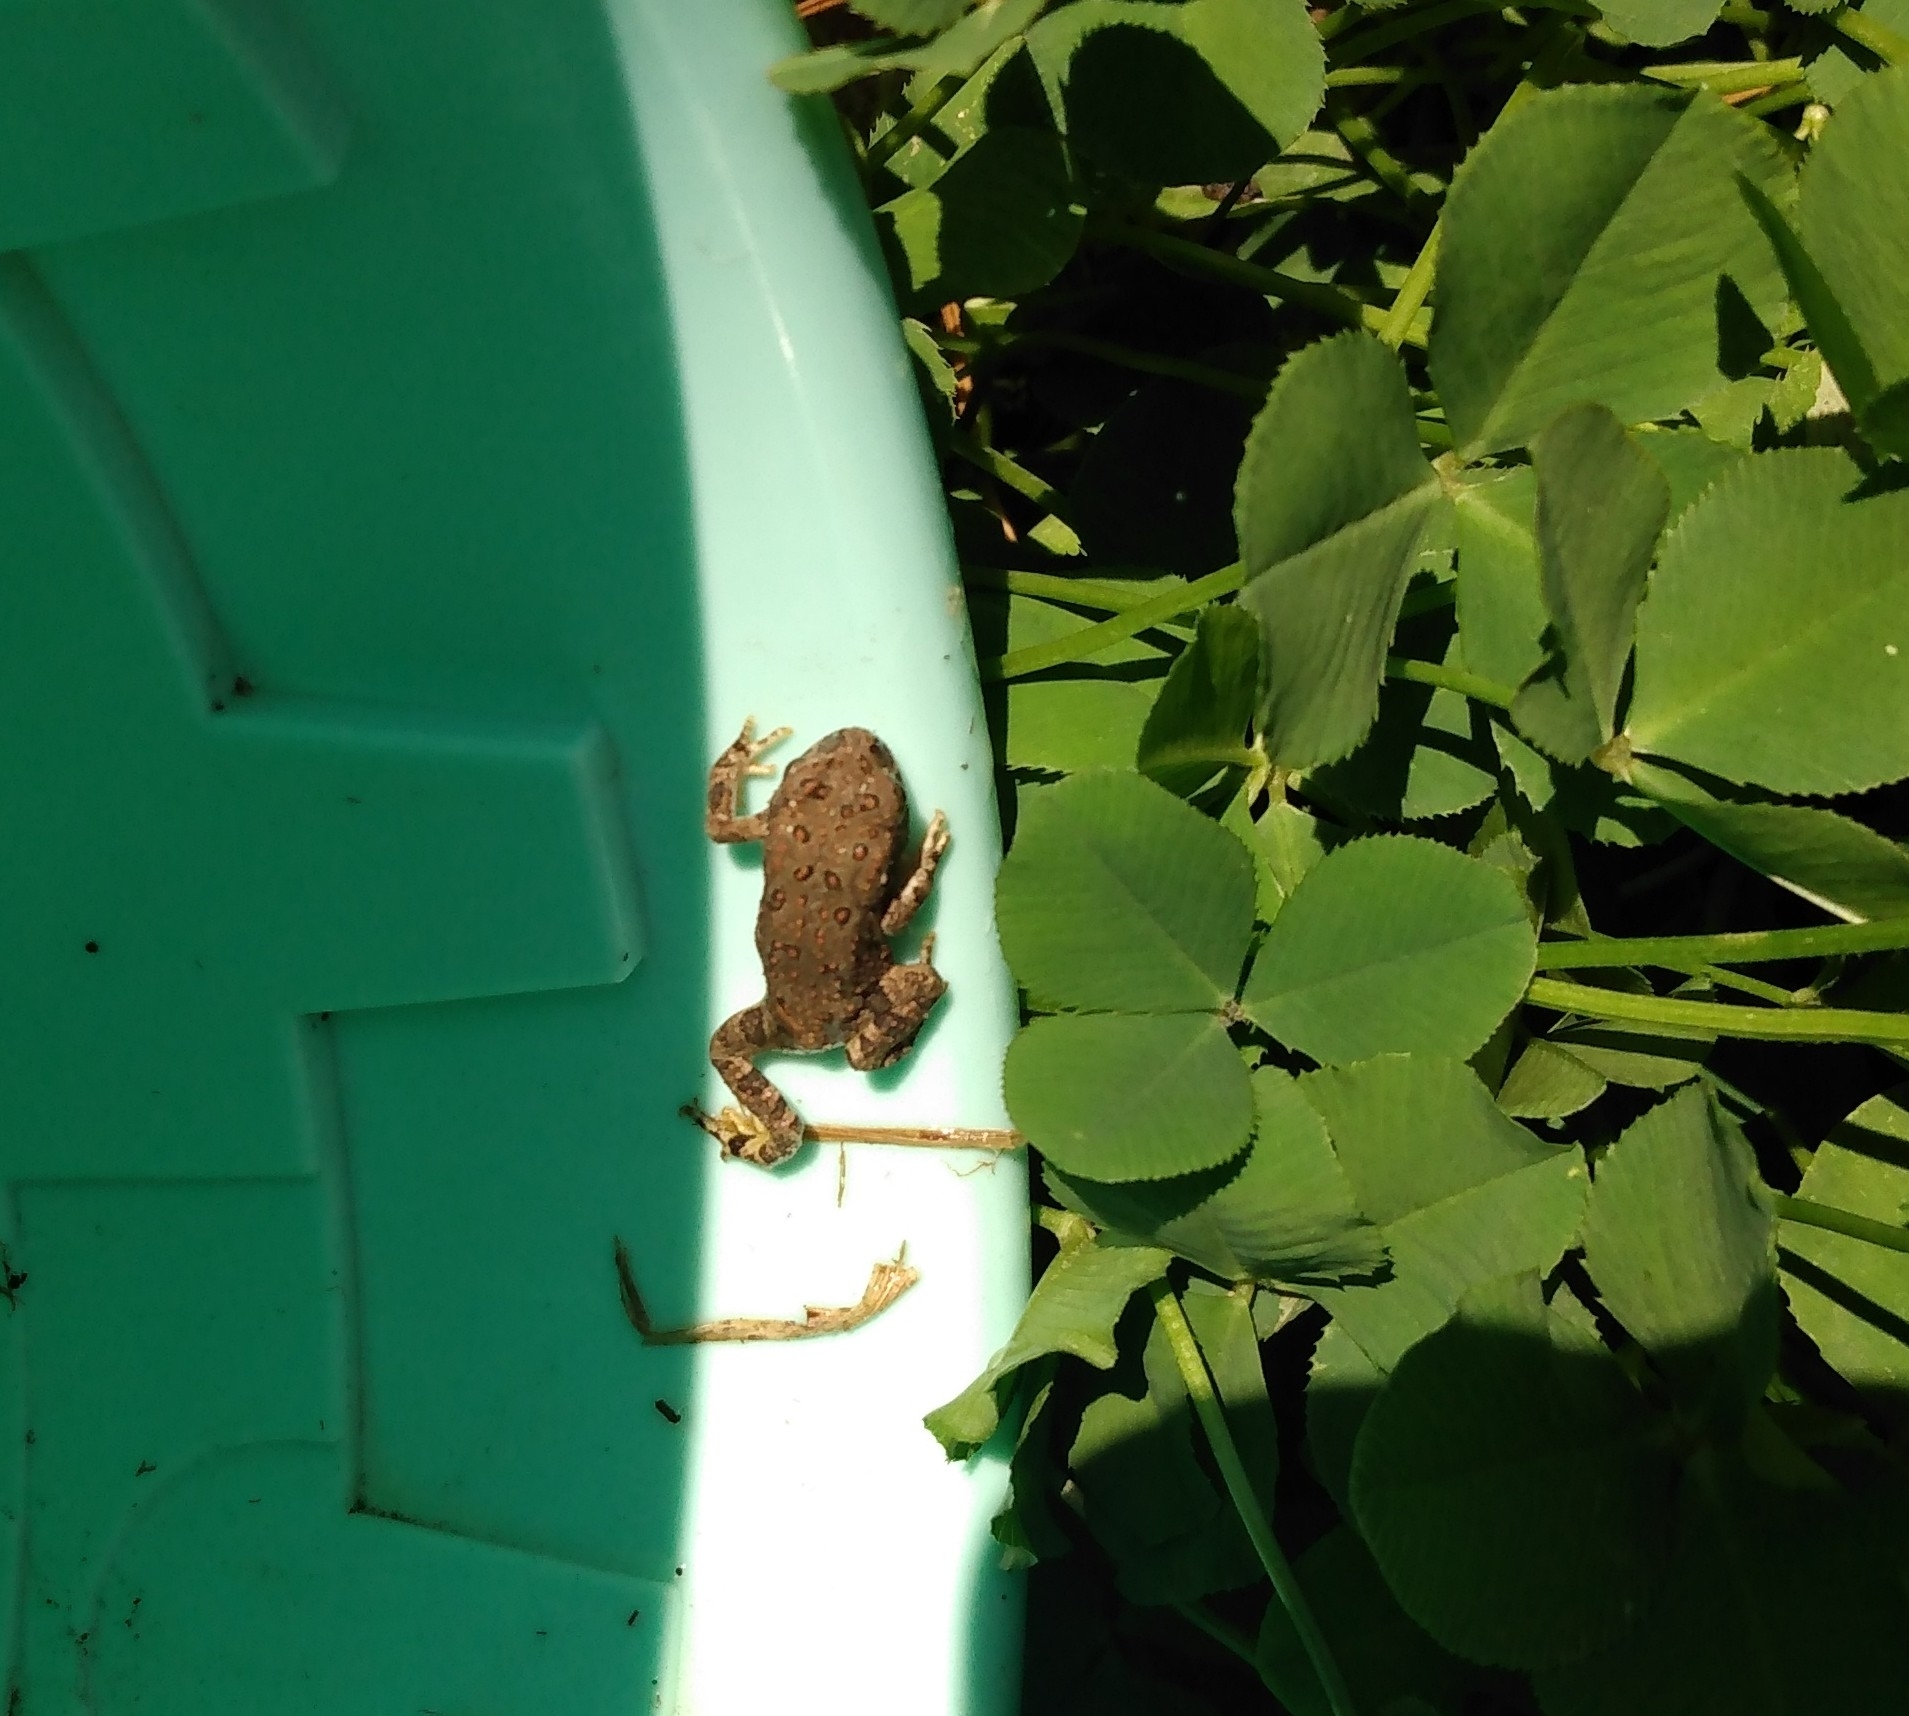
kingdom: Animalia
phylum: Chordata
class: Amphibia
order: Anura
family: Bufonidae
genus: Anaxyrus
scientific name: Anaxyrus woodhousii
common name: Woodhouse's toad
